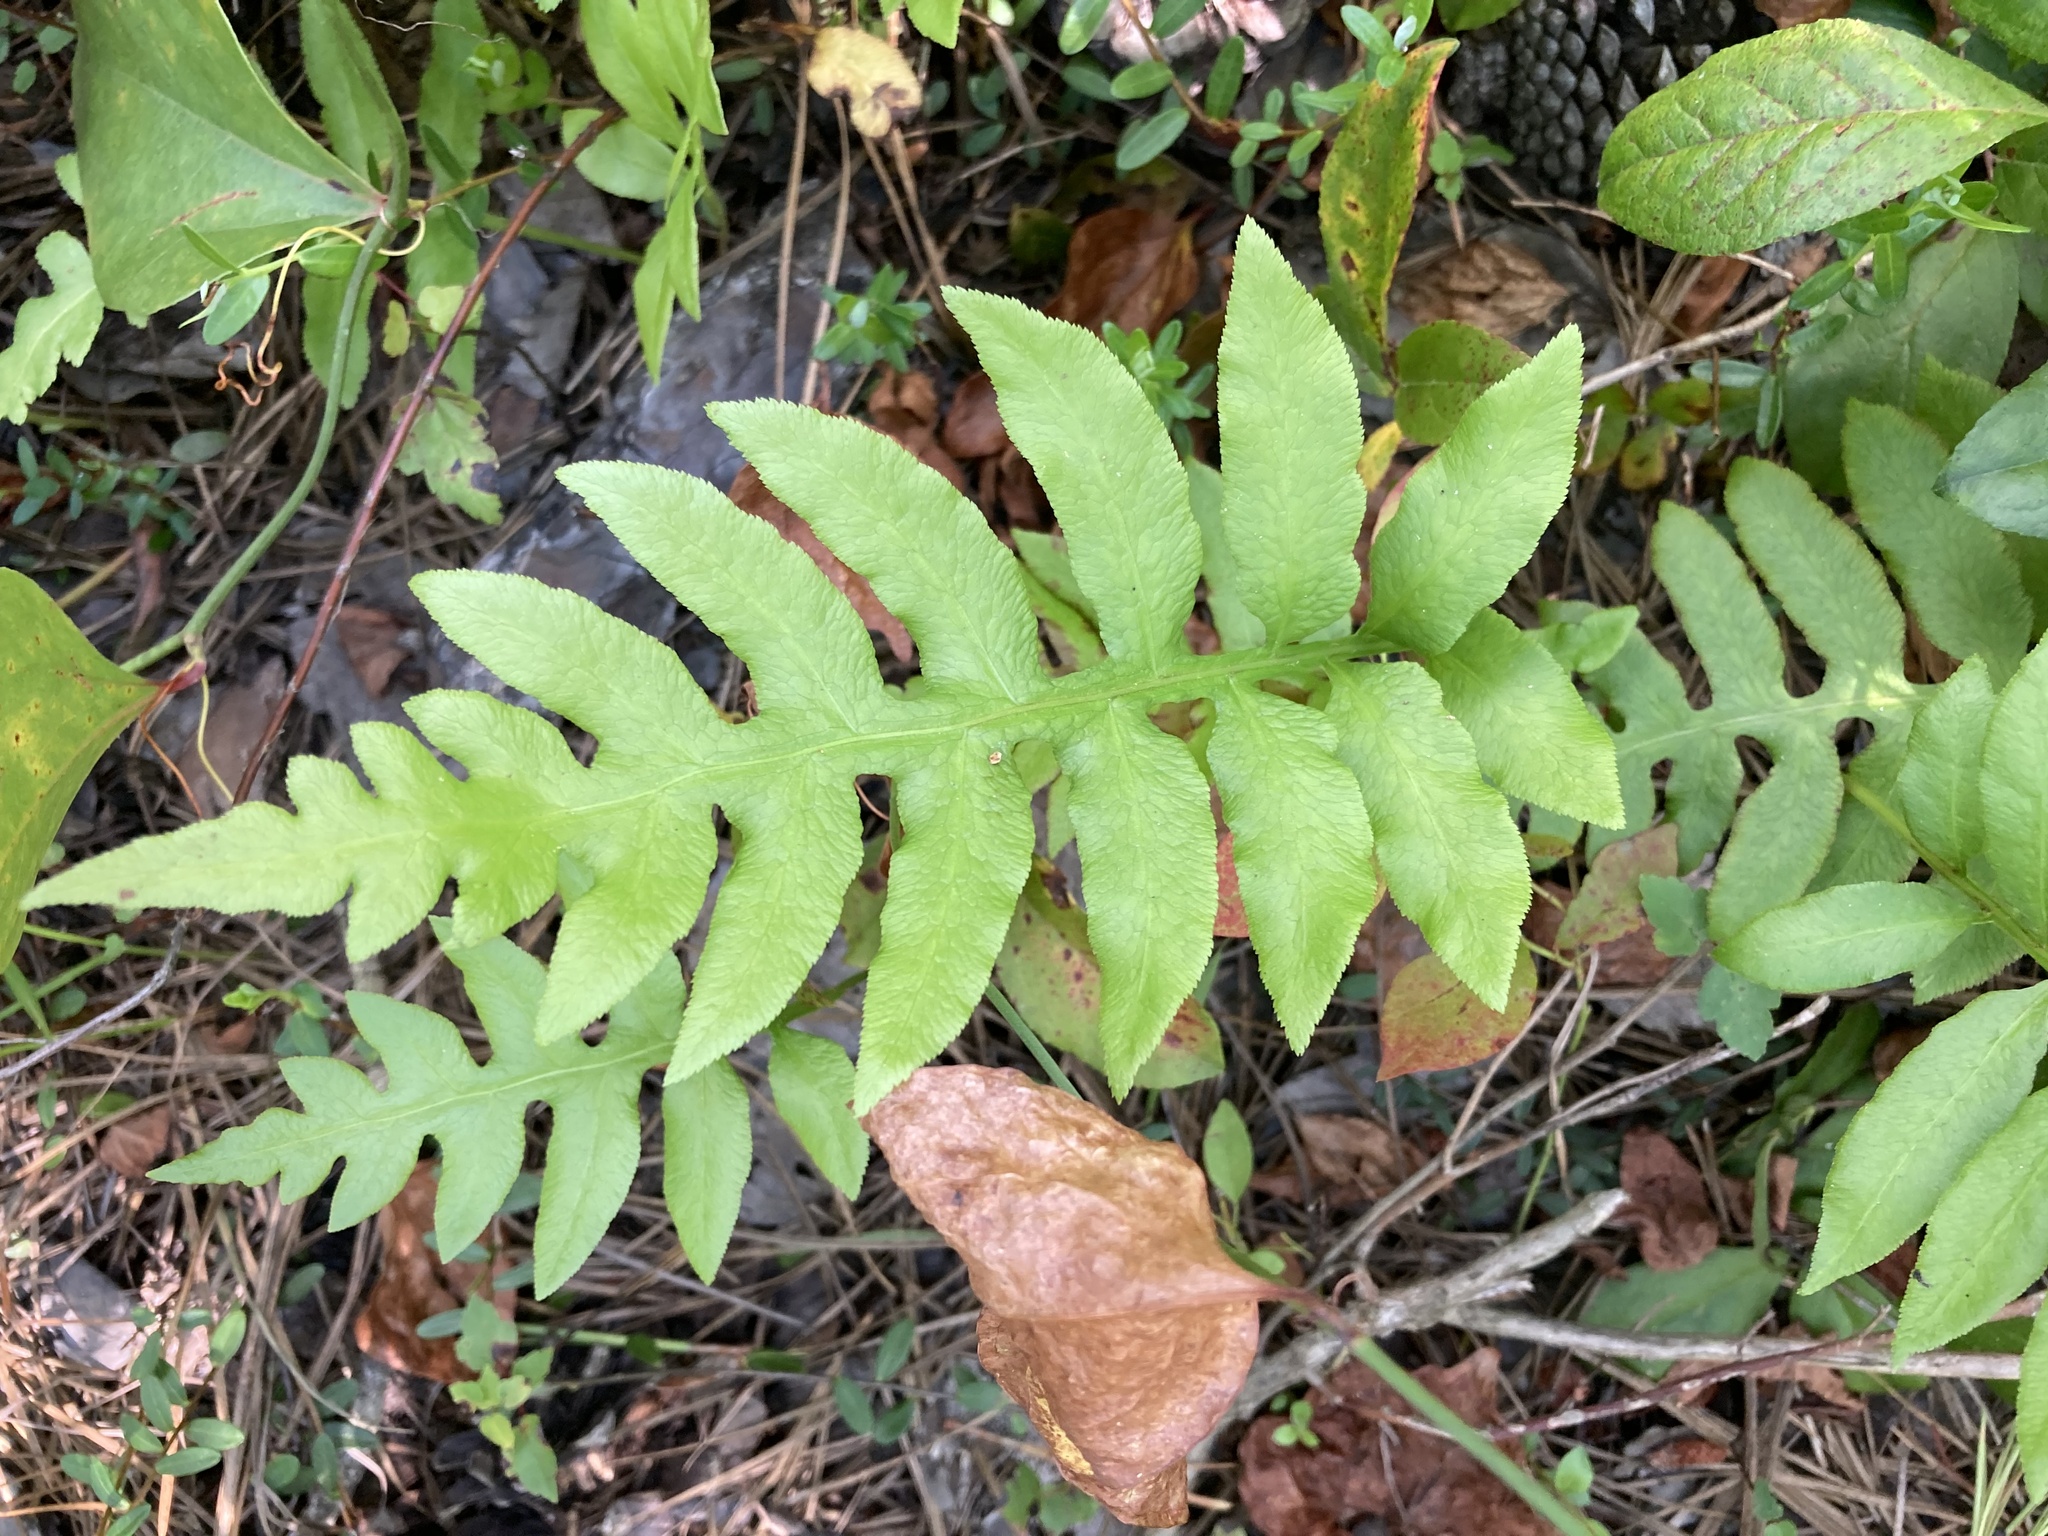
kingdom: Plantae
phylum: Tracheophyta
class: Polypodiopsida
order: Polypodiales
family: Blechnaceae
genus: Lorinseria
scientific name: Lorinseria areolata
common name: Dwarf chain fern
